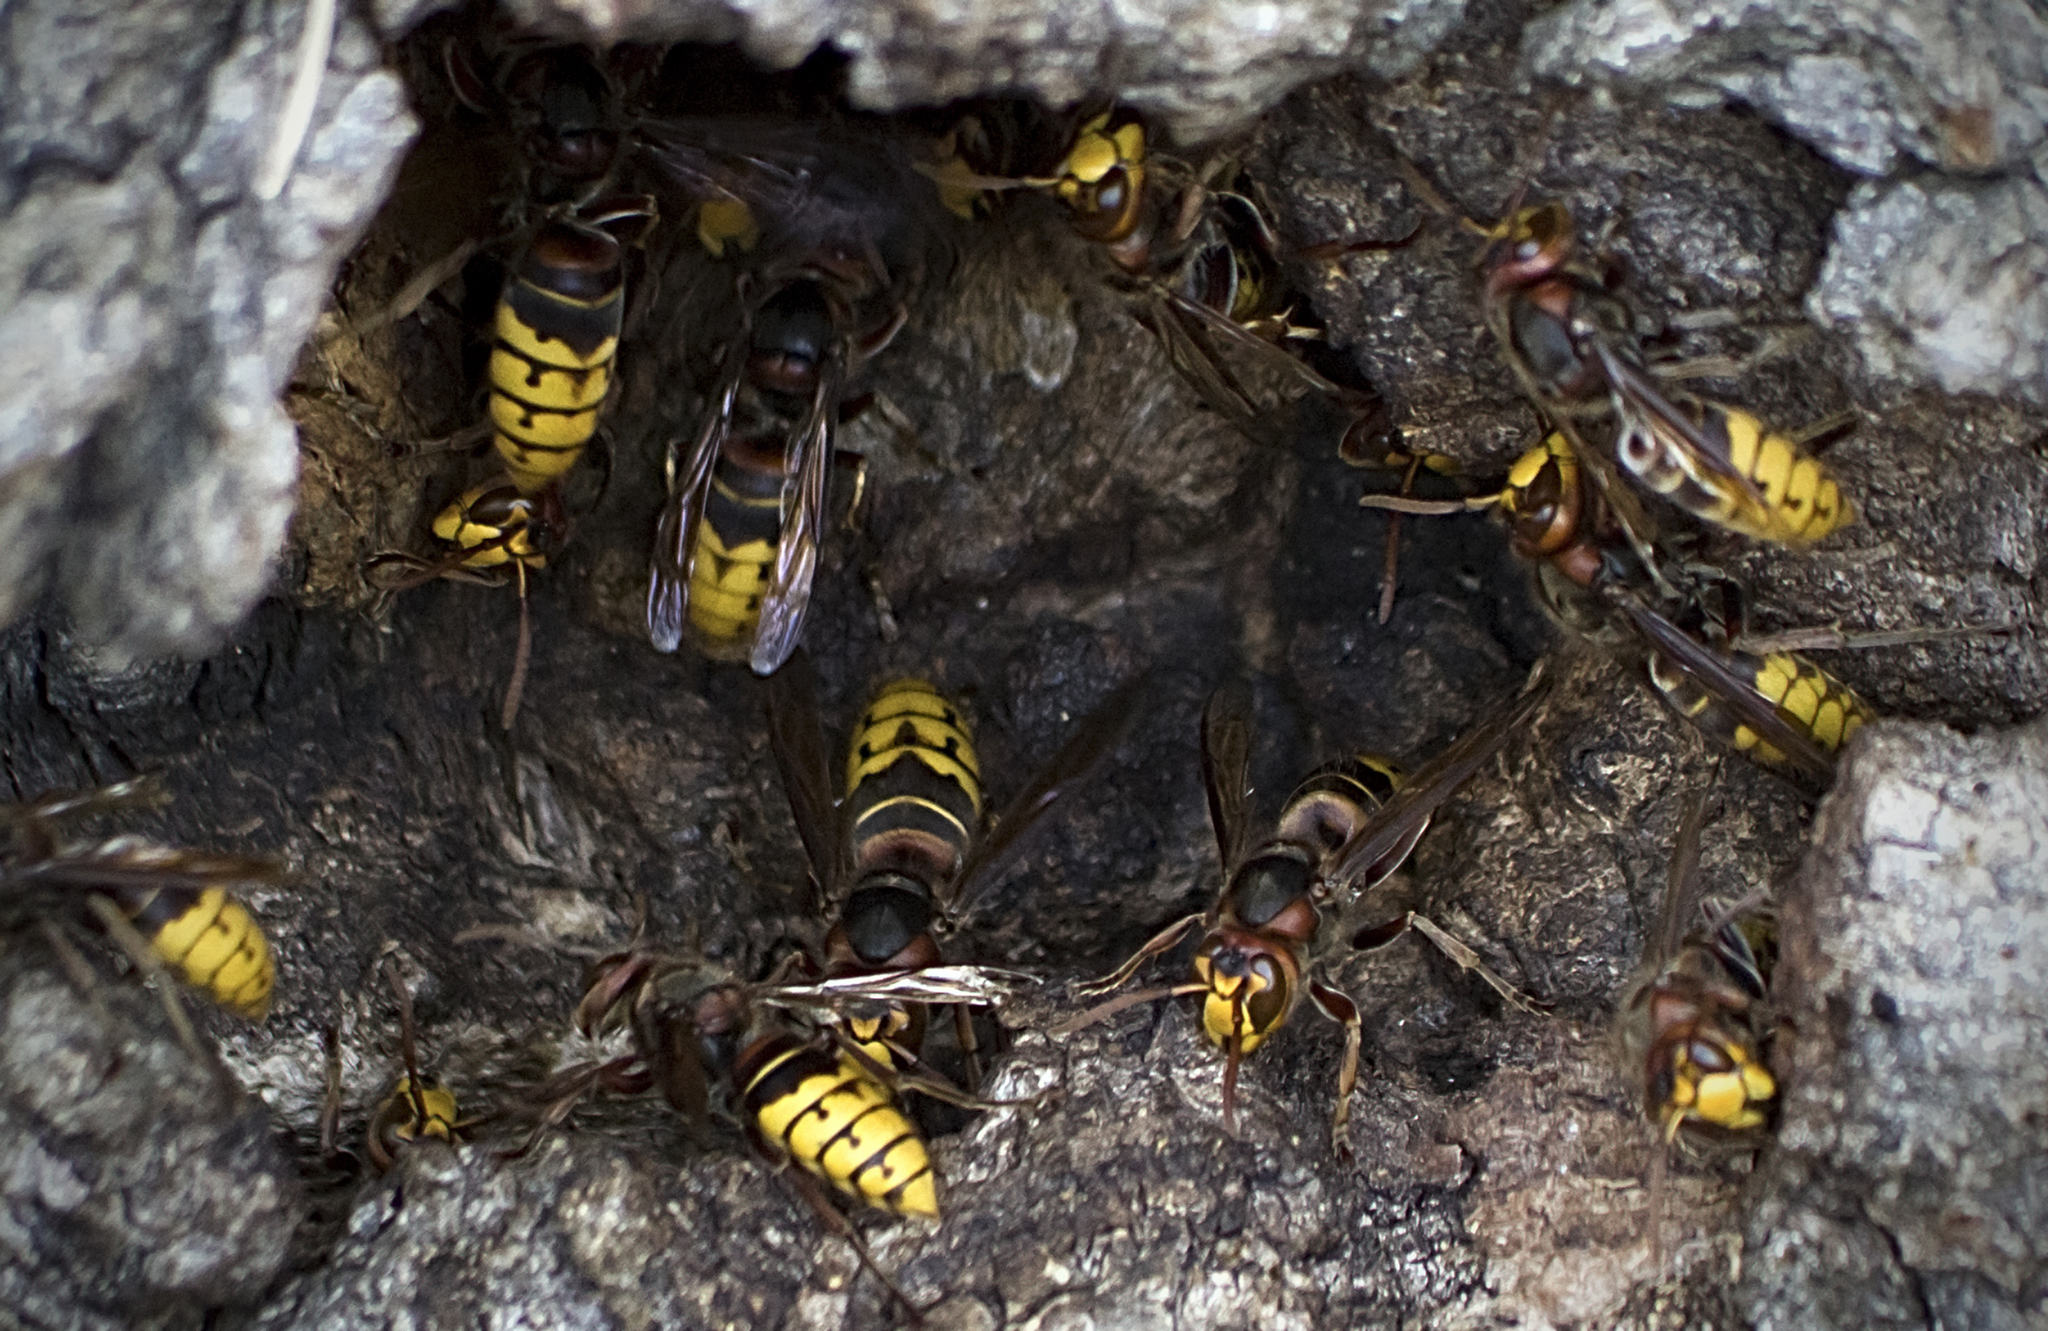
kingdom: Animalia
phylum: Arthropoda
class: Insecta
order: Hymenoptera
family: Vespidae
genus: Vespa
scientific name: Vespa crabro
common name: Hornet
